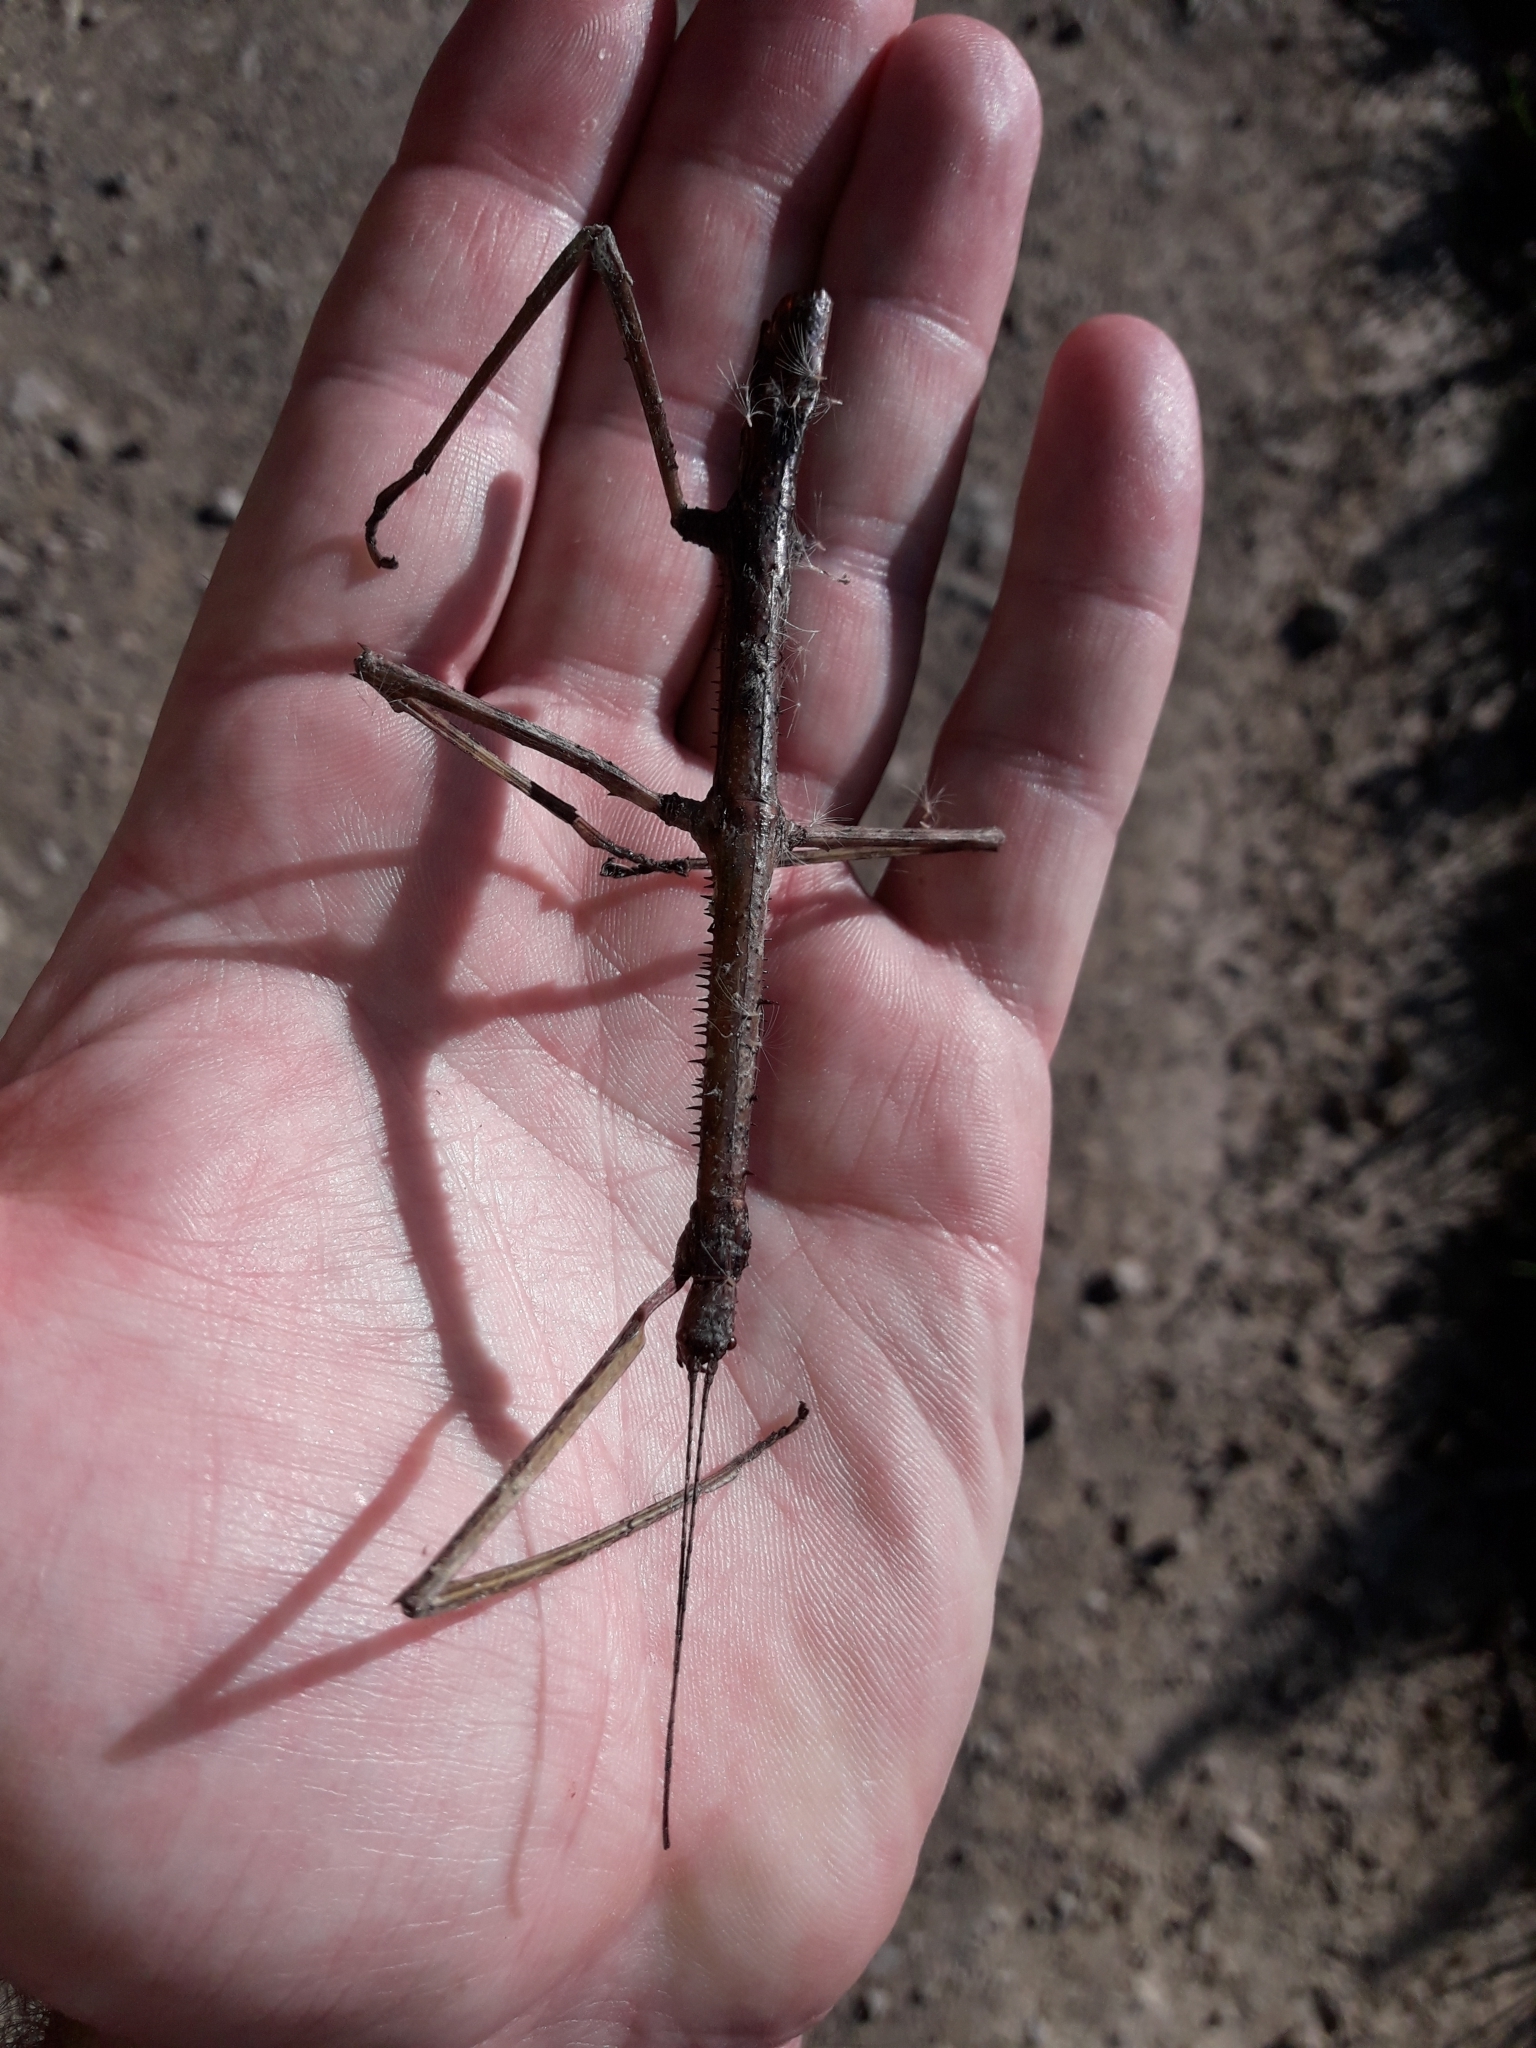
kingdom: Animalia
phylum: Arthropoda
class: Insecta
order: Phasmida
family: Phasmatidae
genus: Argosarchus
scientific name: Argosarchus horridus
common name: Bristly stick insect
